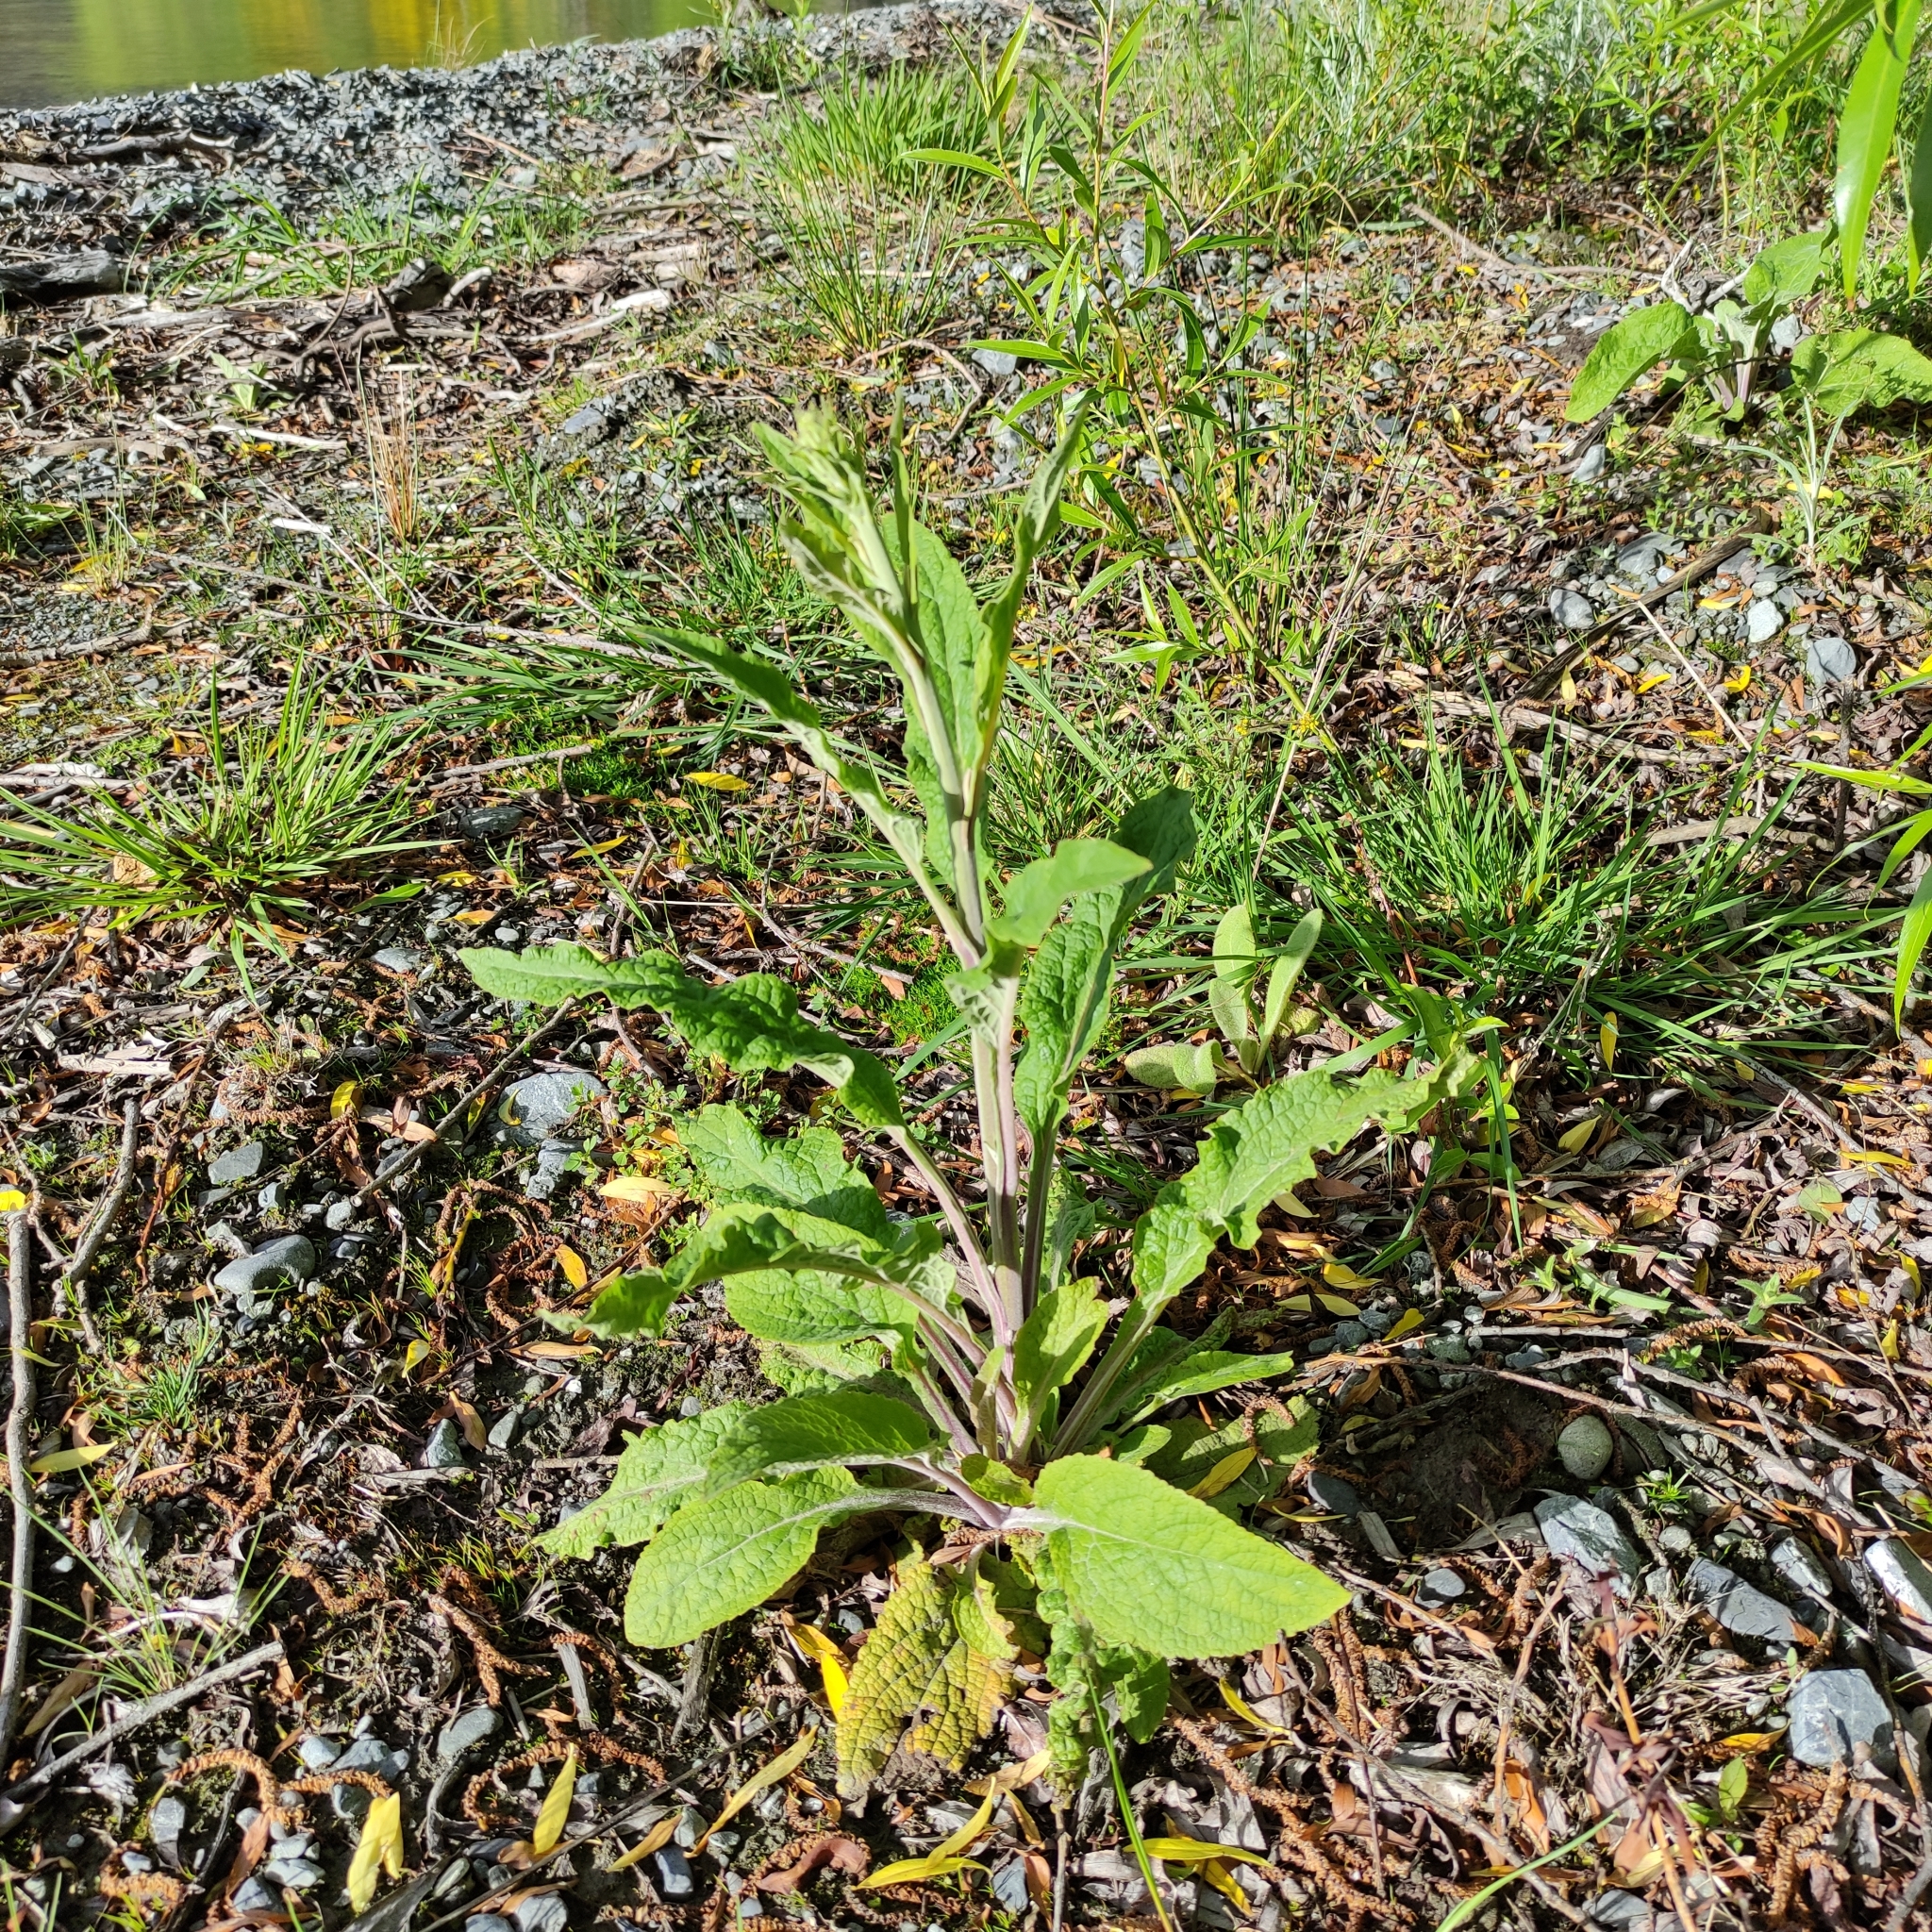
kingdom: Plantae
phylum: Tracheophyta
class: Magnoliopsida
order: Lamiales
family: Plantaginaceae
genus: Digitalis
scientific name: Digitalis purpurea
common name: Foxglove
